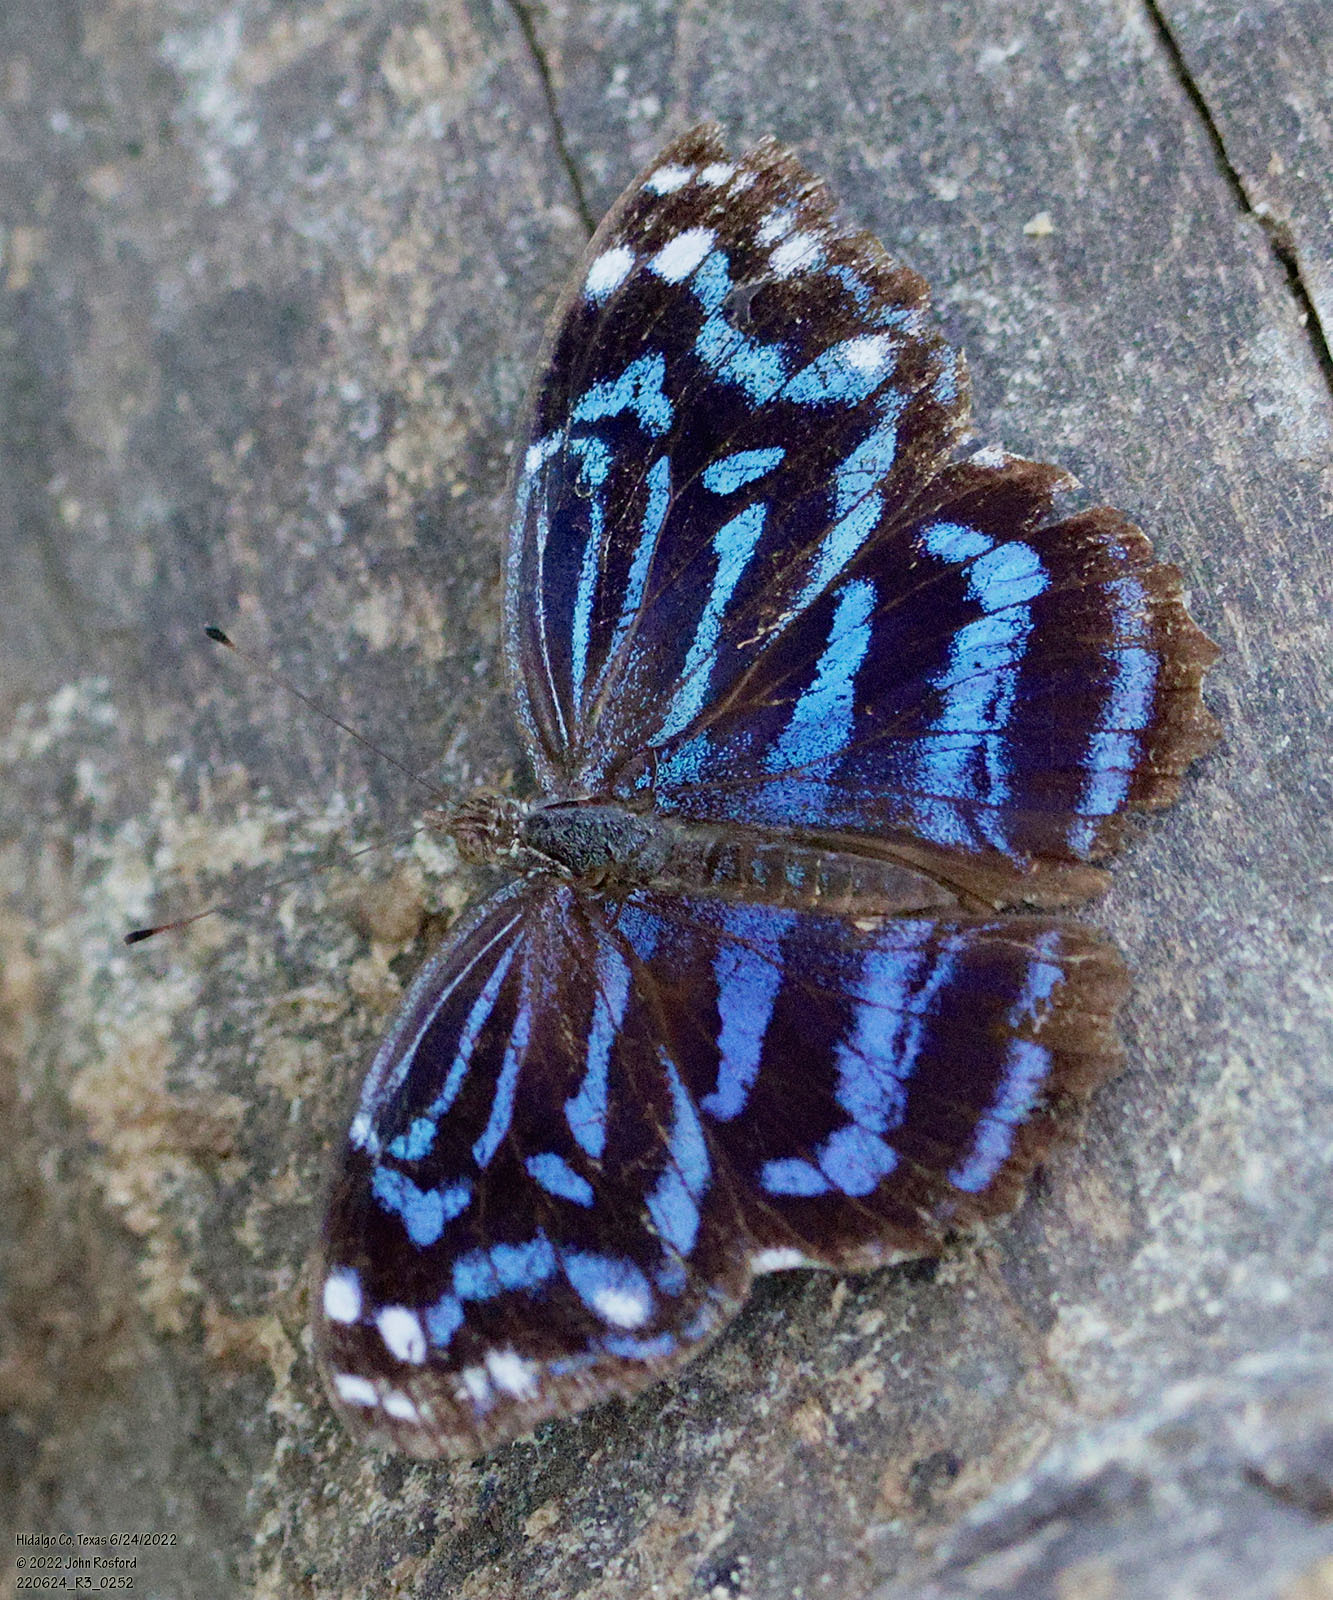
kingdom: Animalia
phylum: Arthropoda
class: Insecta
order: Lepidoptera
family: Nymphalidae
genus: Myscelia
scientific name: Myscelia ethusa
